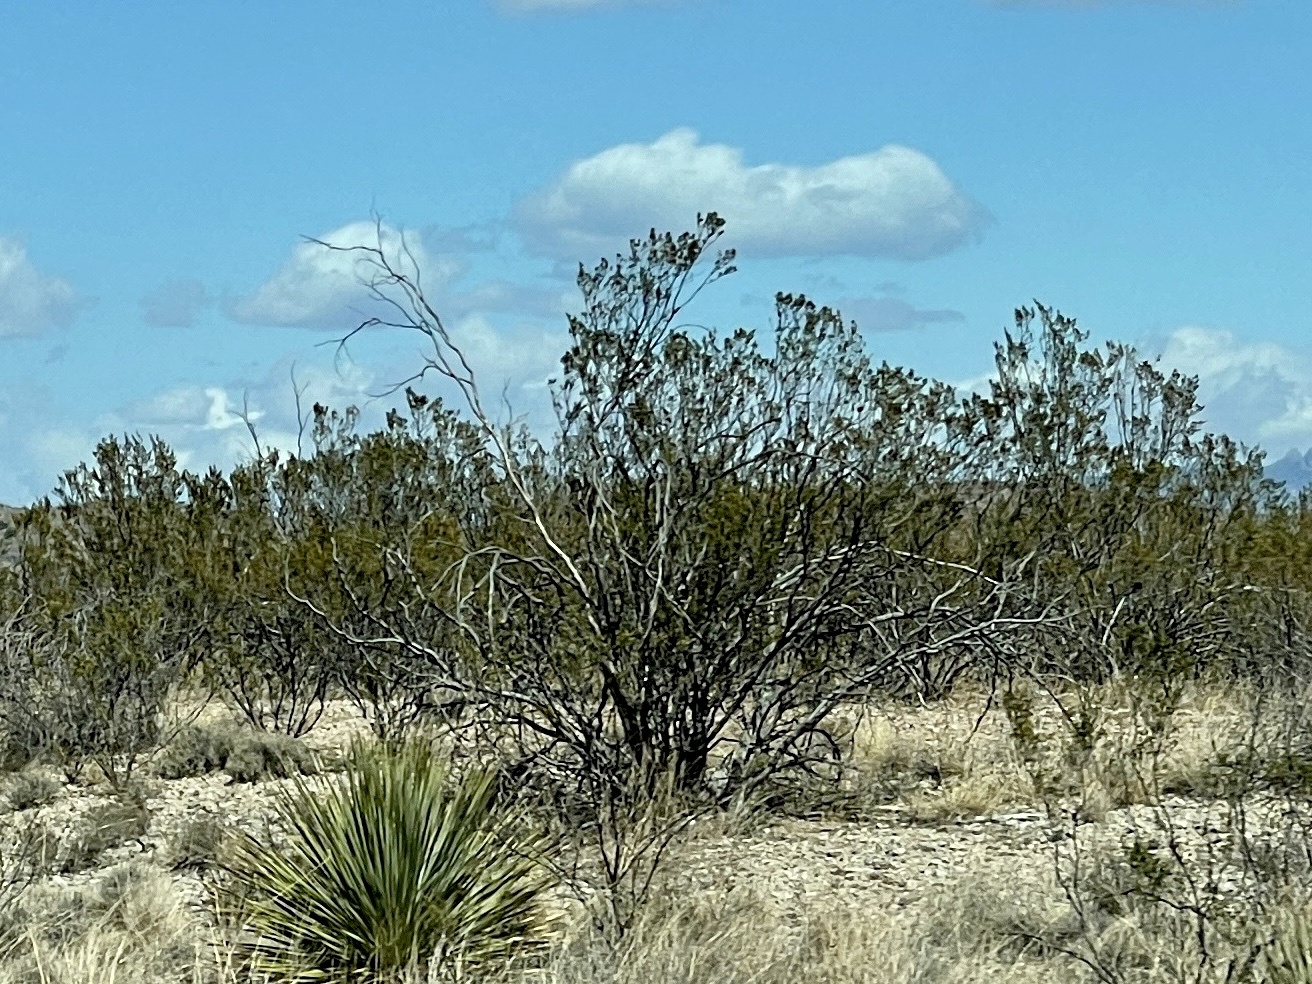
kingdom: Plantae
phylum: Tracheophyta
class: Magnoliopsida
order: Zygophyllales
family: Zygophyllaceae
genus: Larrea
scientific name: Larrea tridentata
